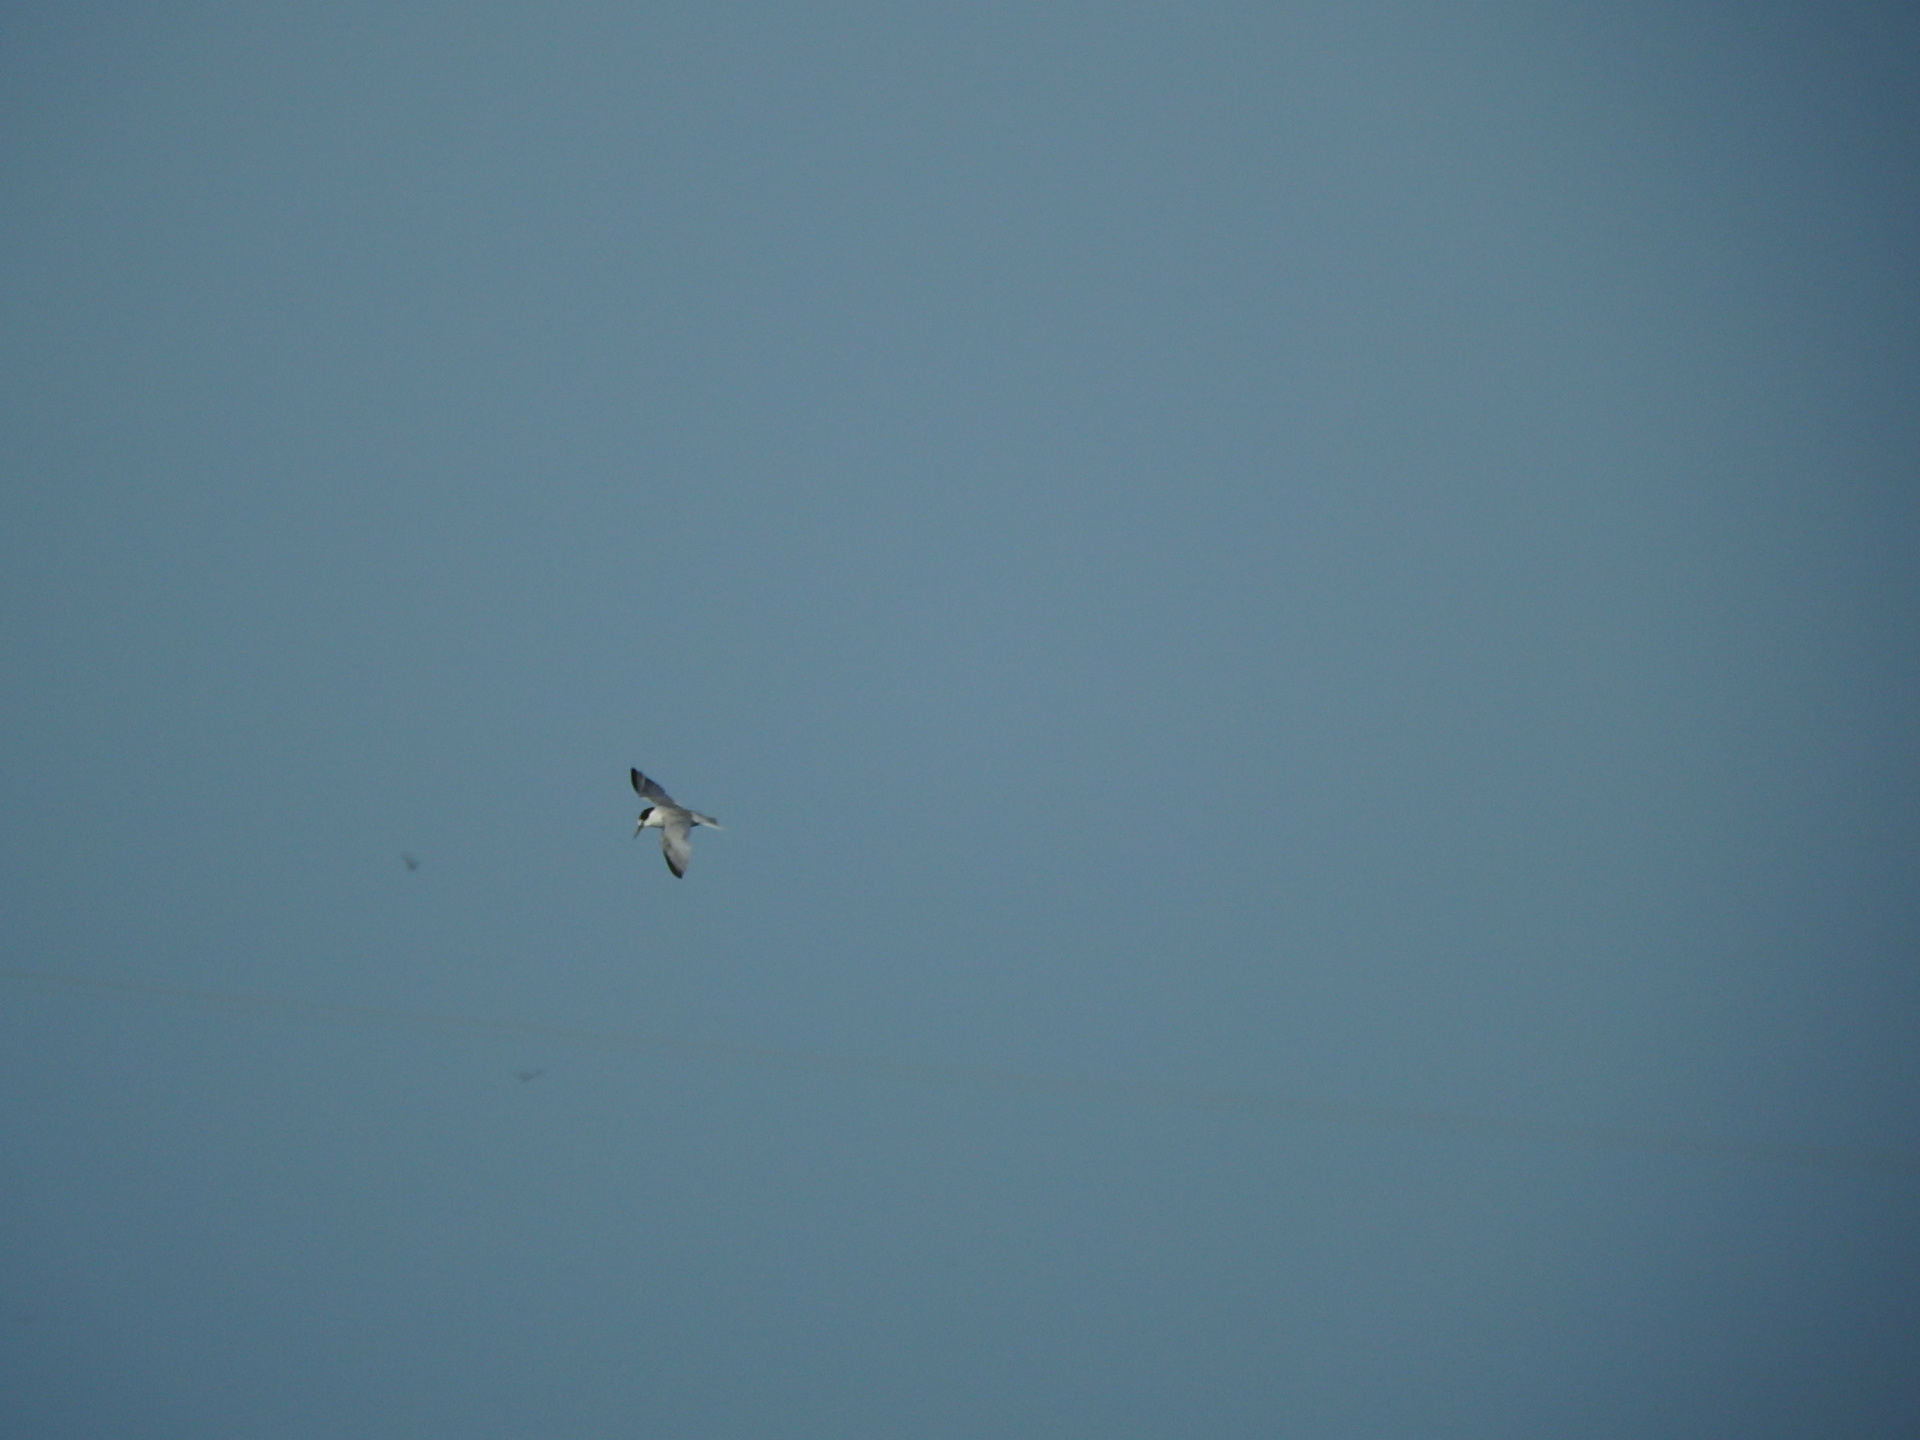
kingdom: Animalia
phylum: Chordata
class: Aves
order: Charadriiformes
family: Laridae
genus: Sternula
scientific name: Sternula albifrons
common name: Little tern
